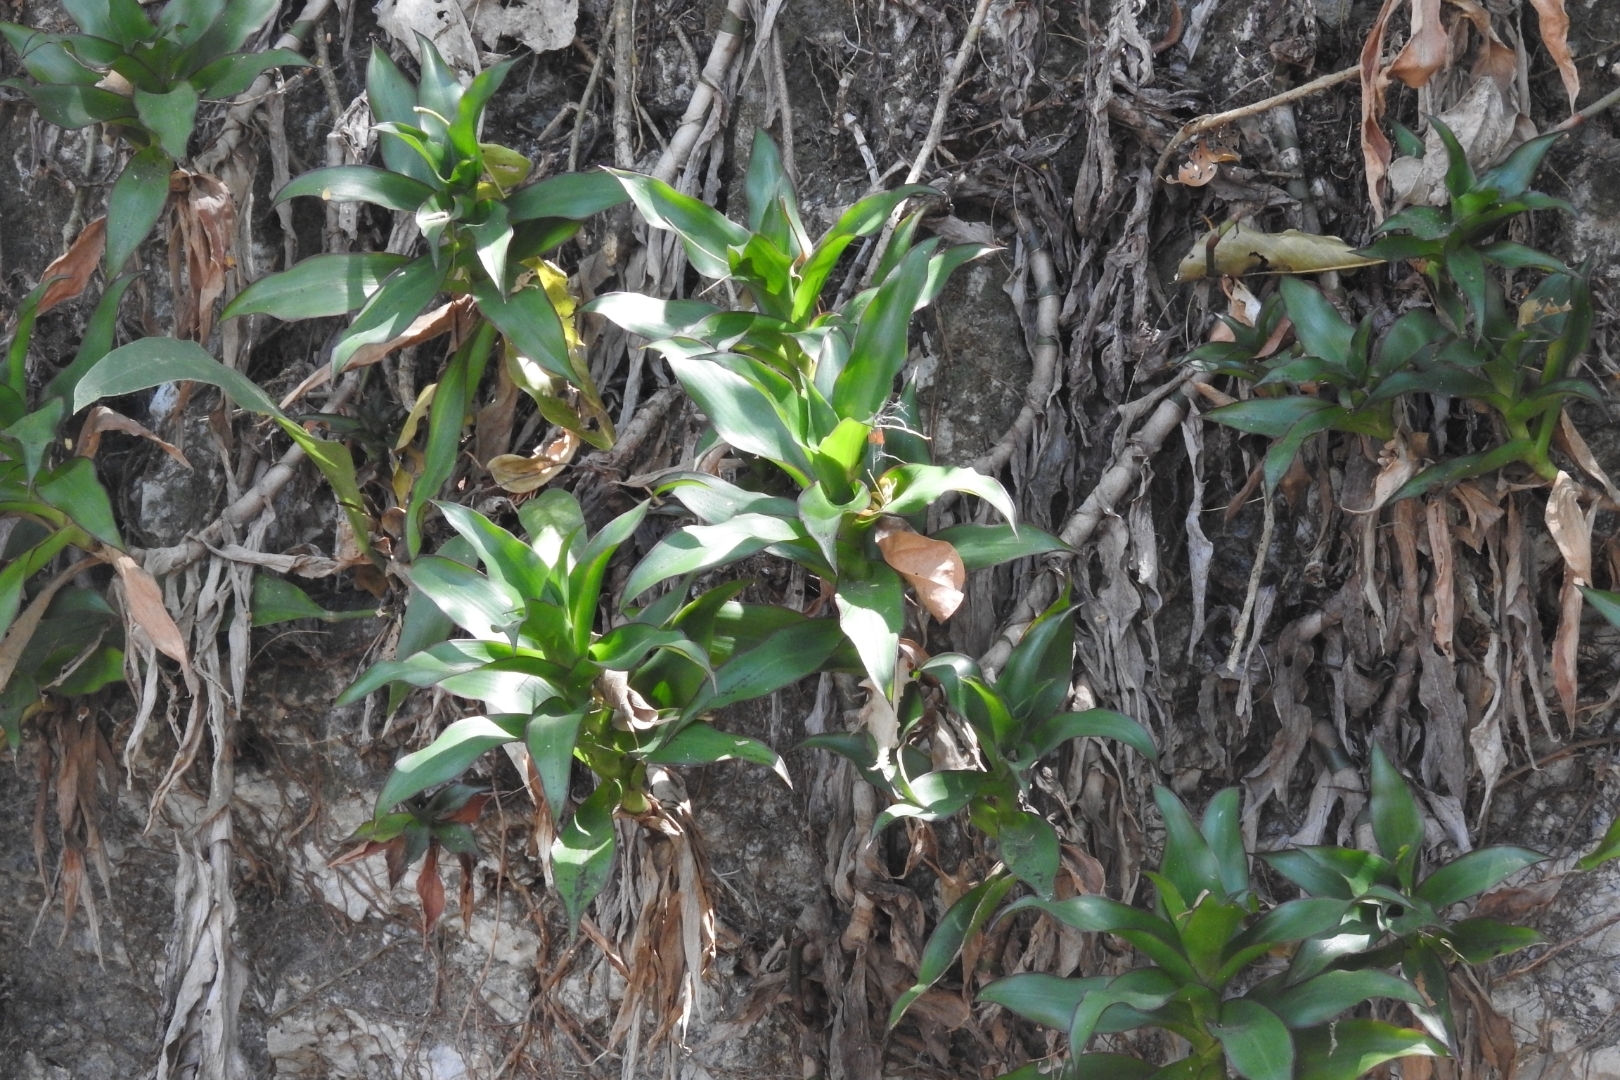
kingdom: Plantae
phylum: Tracheophyta
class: Liliopsida
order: Commelinales
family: Commelinaceae
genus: Callisia
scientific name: Callisia fragrans
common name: Basketplant
